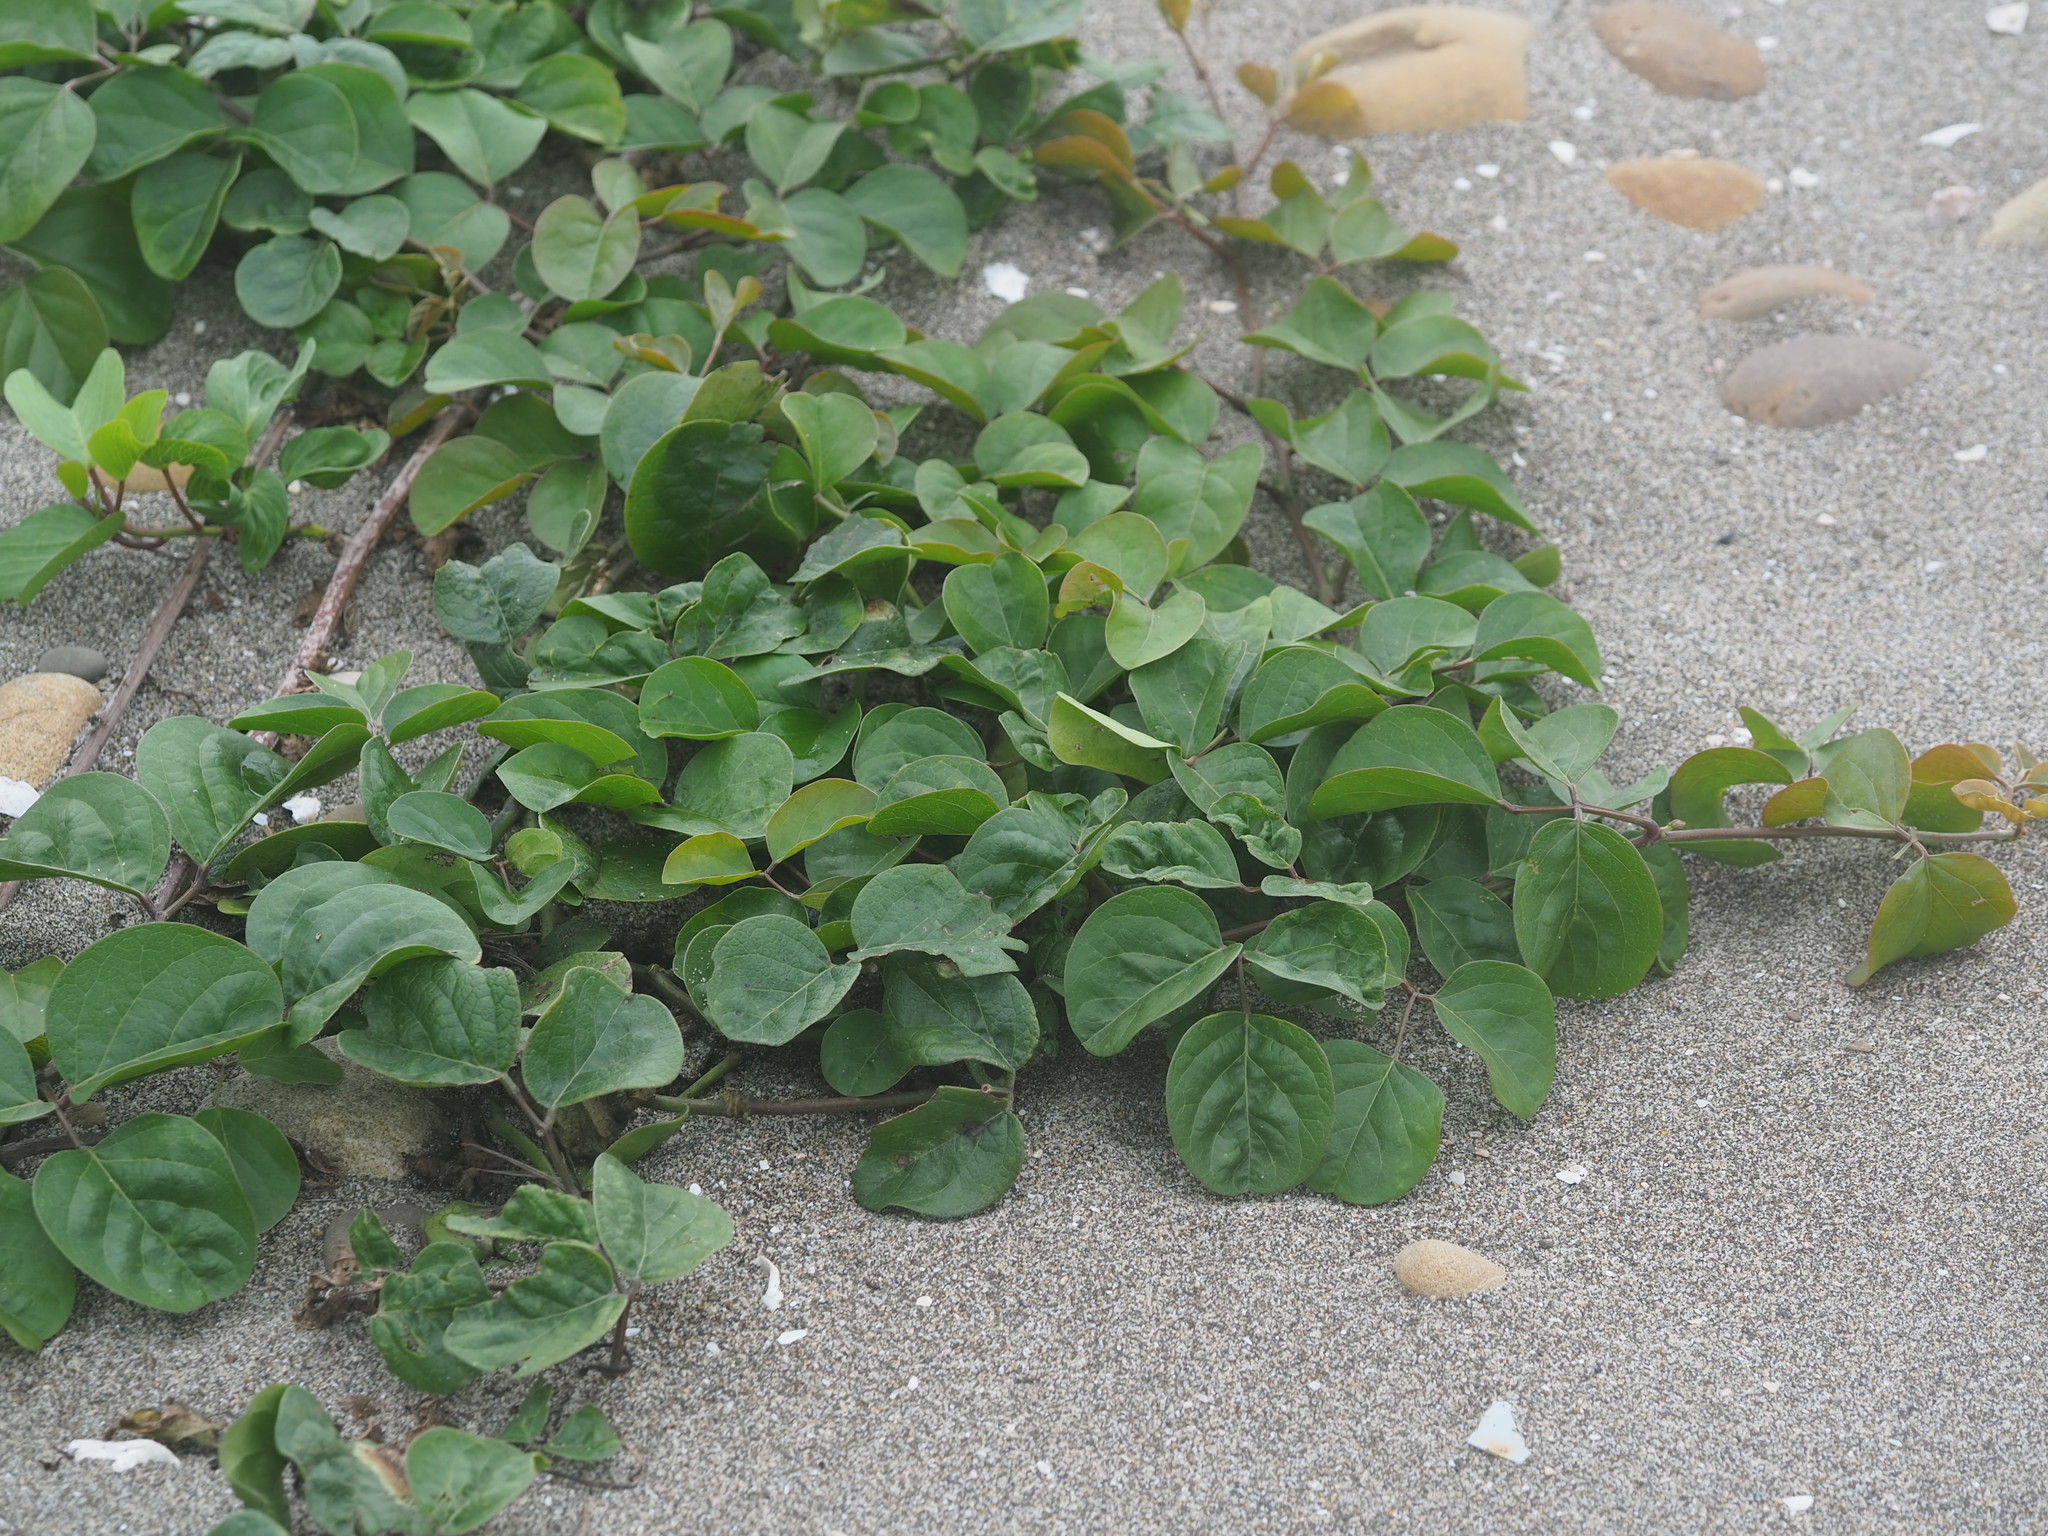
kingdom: Plantae
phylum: Tracheophyta
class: Magnoliopsida
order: Fabales
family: Fabaceae
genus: Canavalia
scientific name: Canavalia rosea
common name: Beach-bean
